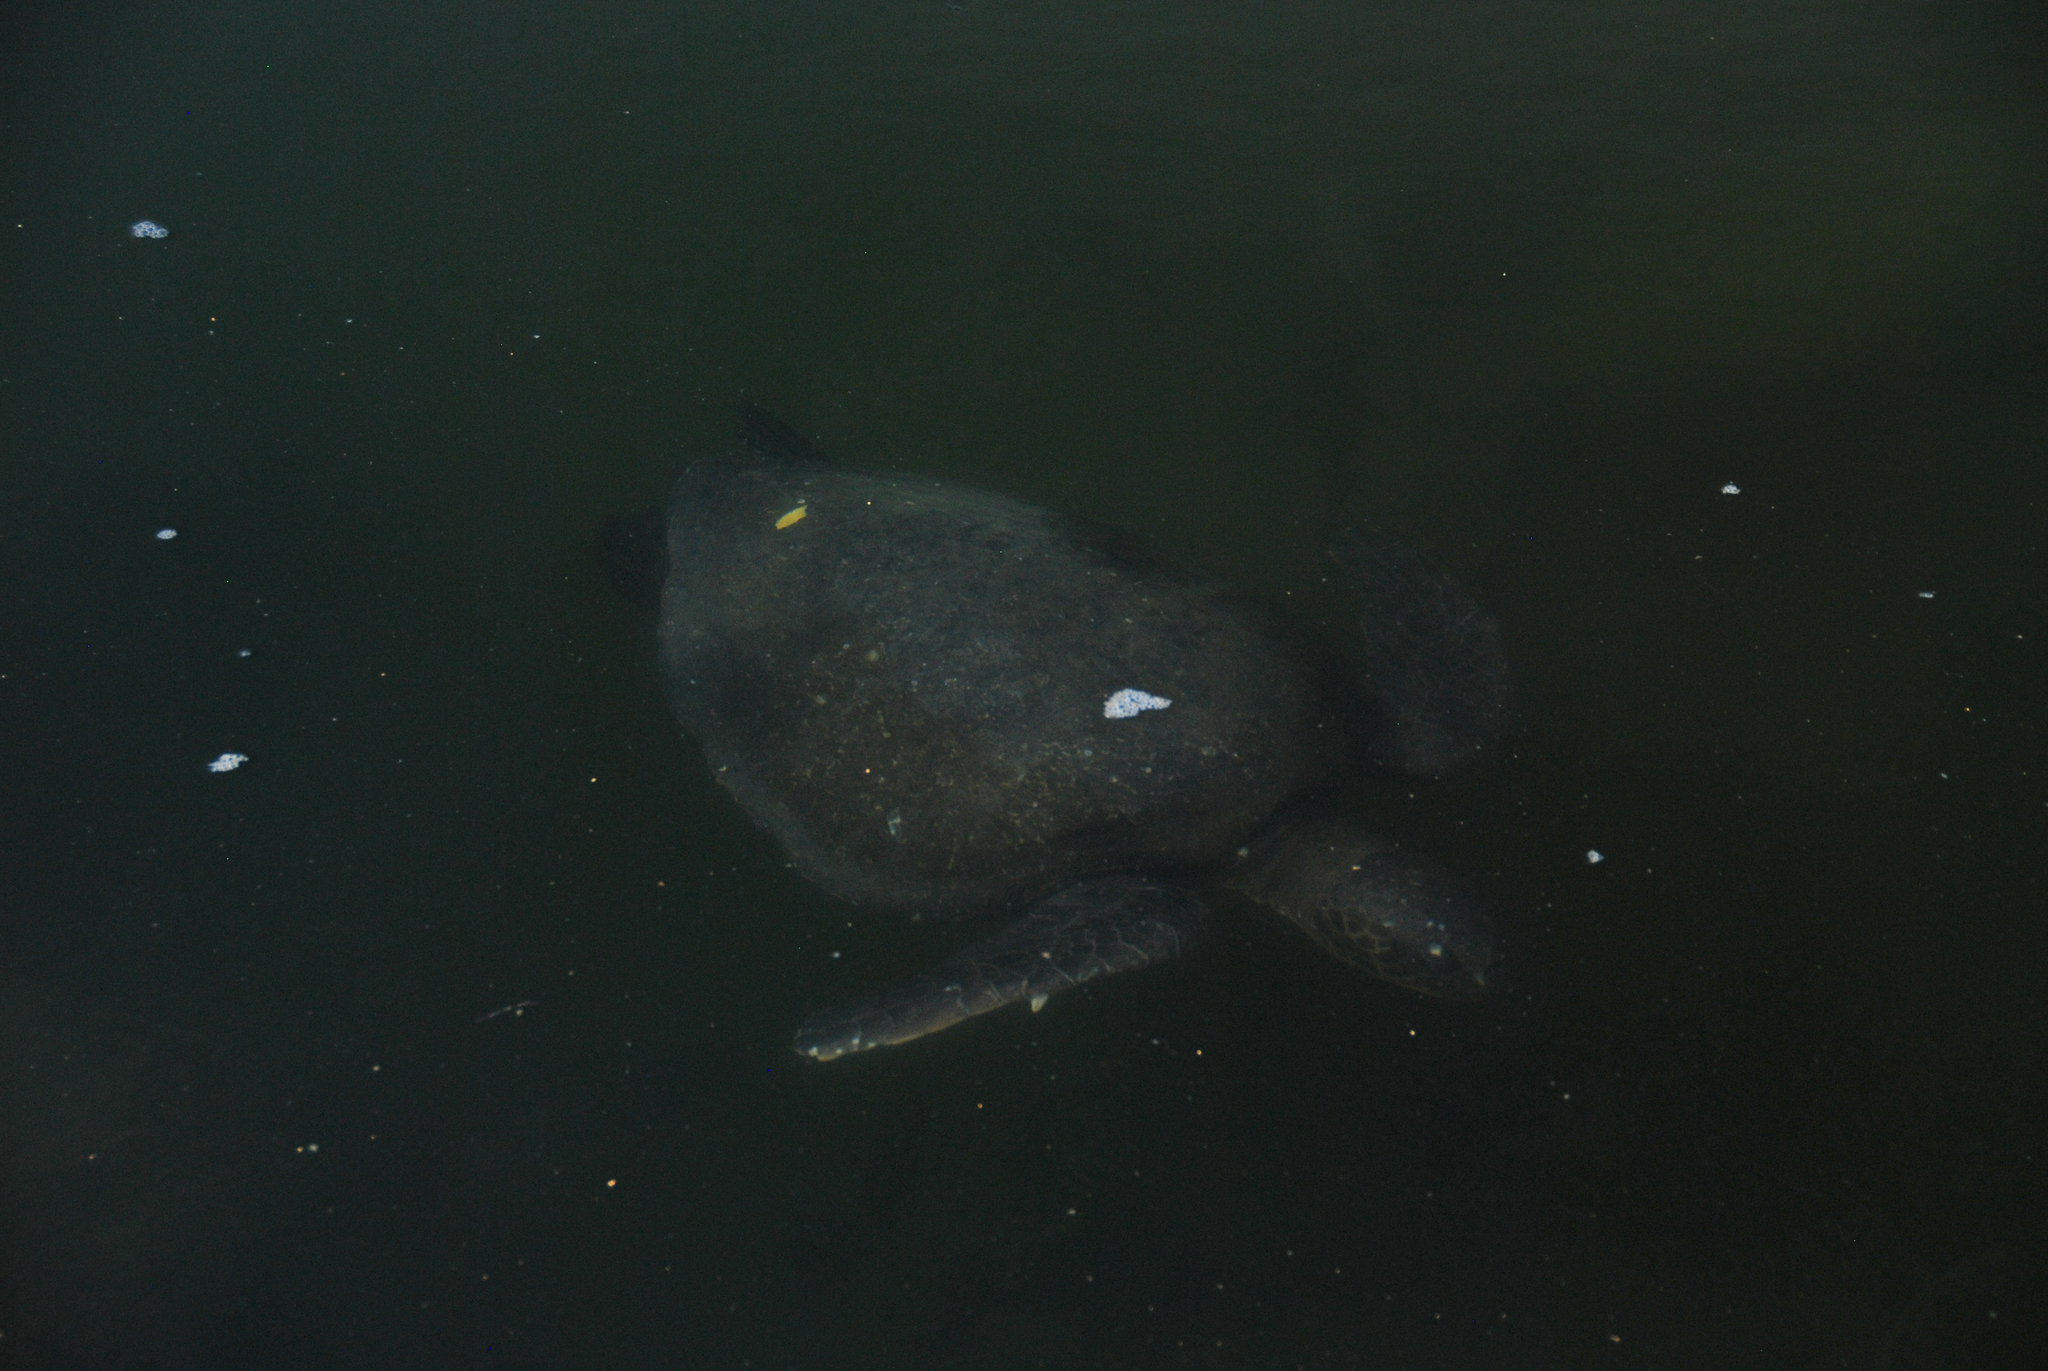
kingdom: Animalia
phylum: Chordata
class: Testudines
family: Cheloniidae
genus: Chelonia
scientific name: Chelonia mydas
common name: Green turtle
